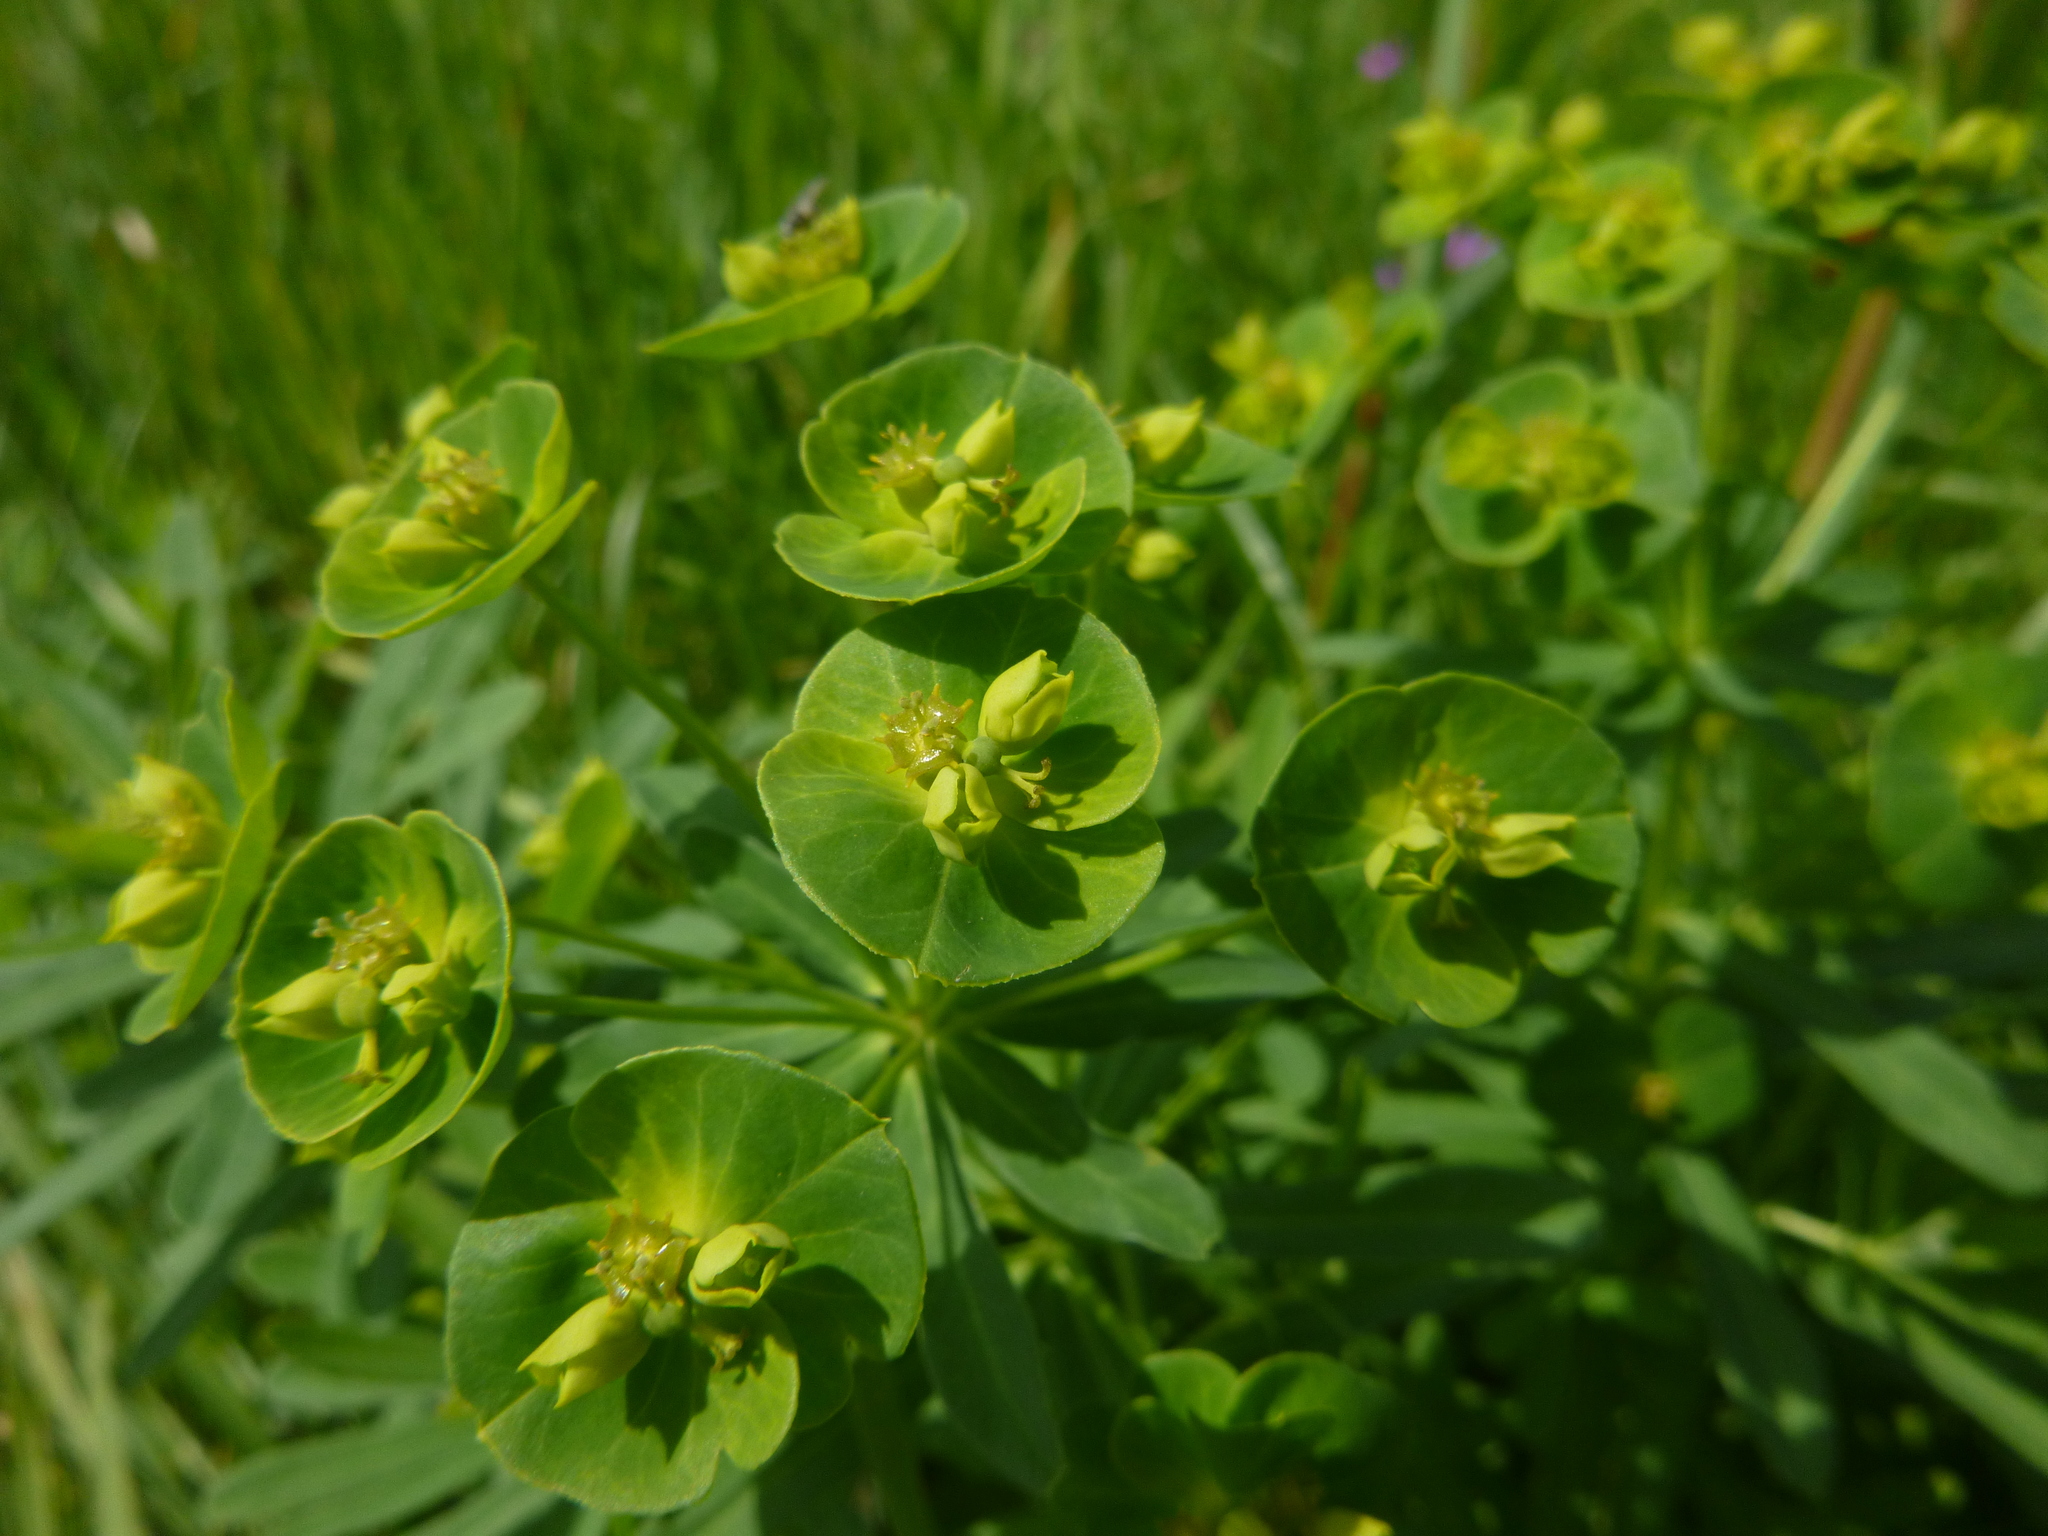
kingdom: Plantae
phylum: Tracheophyta
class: Magnoliopsida
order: Malpighiales
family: Euphorbiaceae
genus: Euphorbia
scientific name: Euphorbia esula
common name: Leafy spurge
